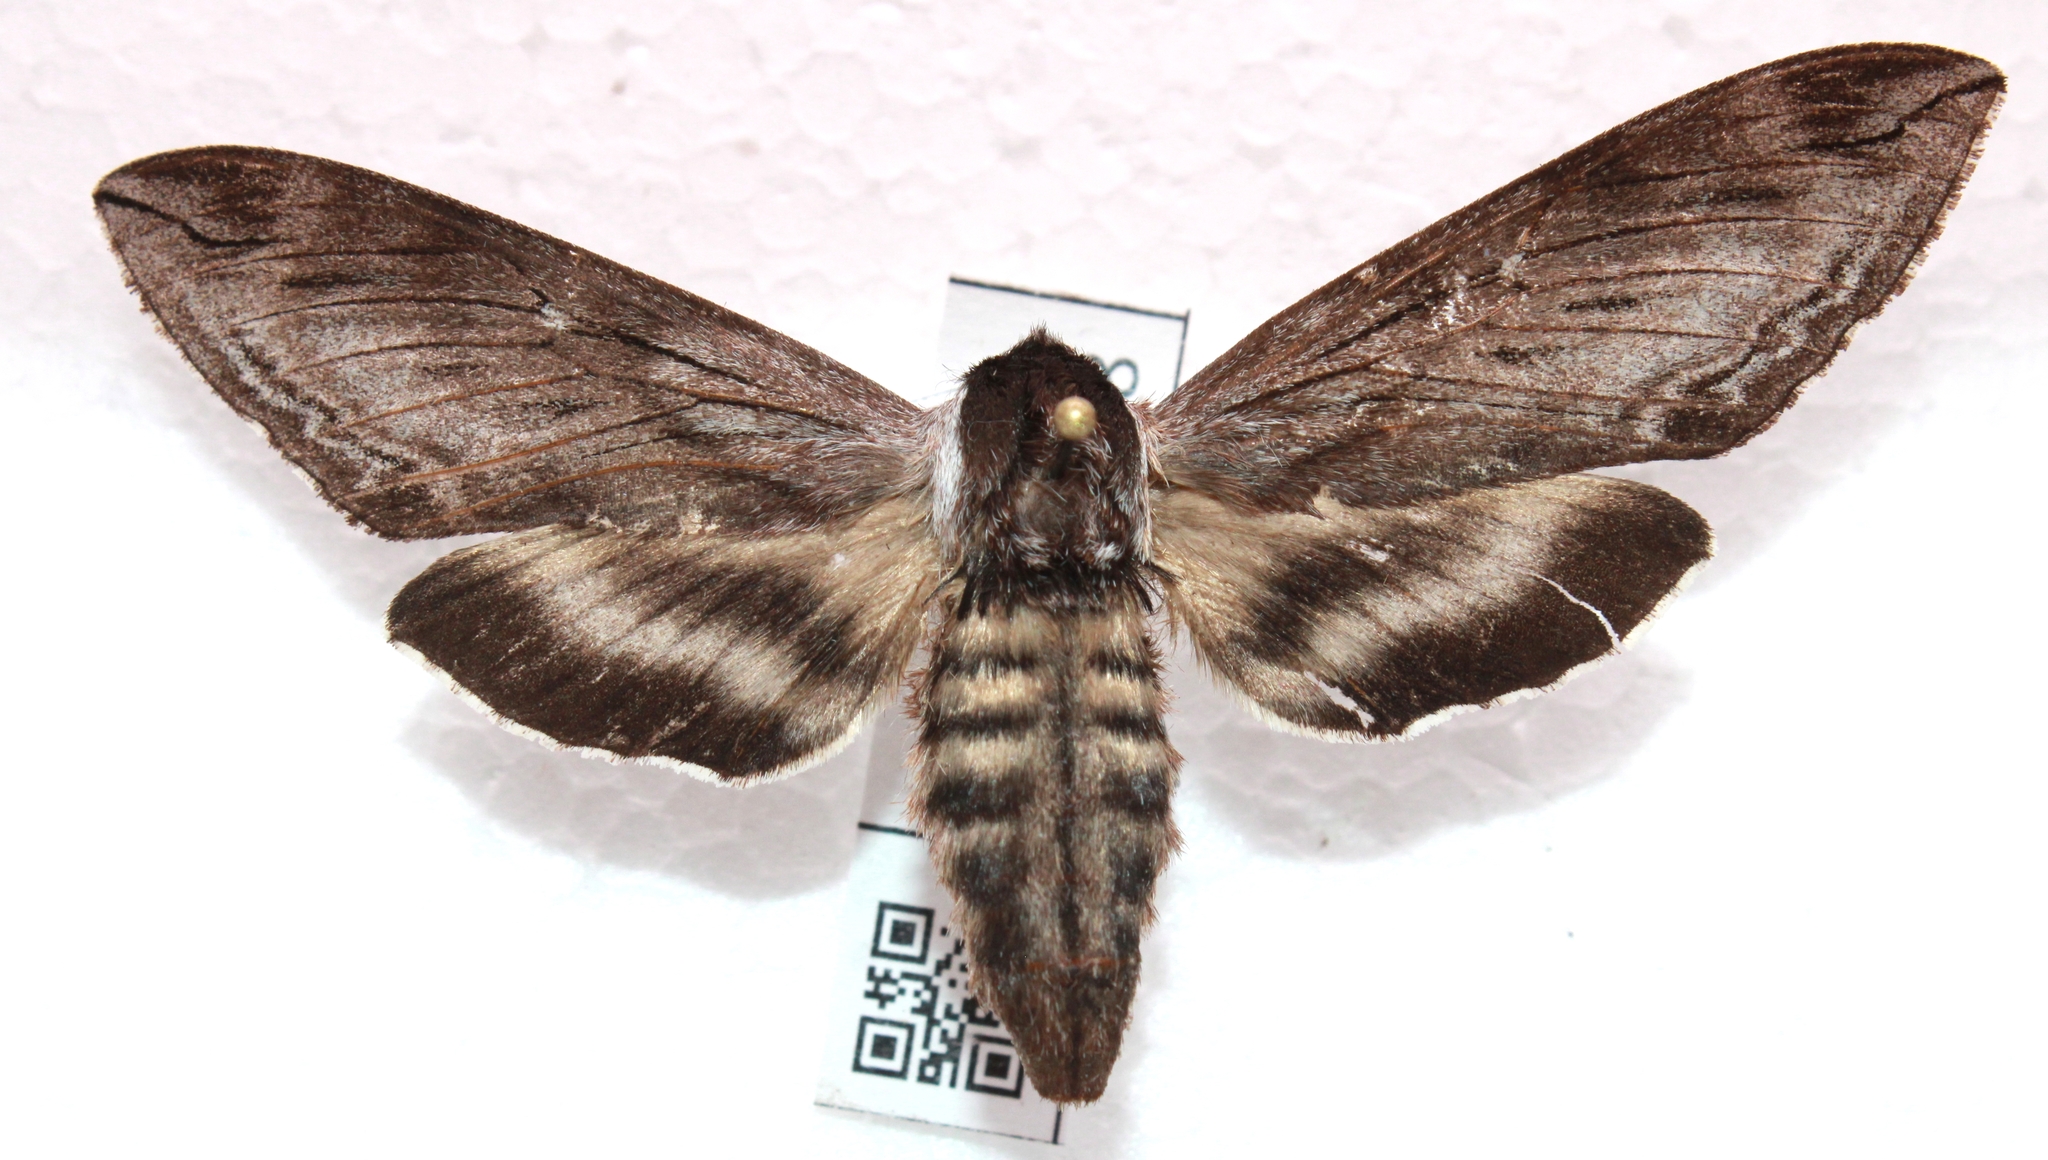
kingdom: Animalia
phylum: Arthropoda
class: Insecta
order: Lepidoptera
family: Sphingidae
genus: Sphinx
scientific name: Sphinx poecila
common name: Northern apple sphinx
